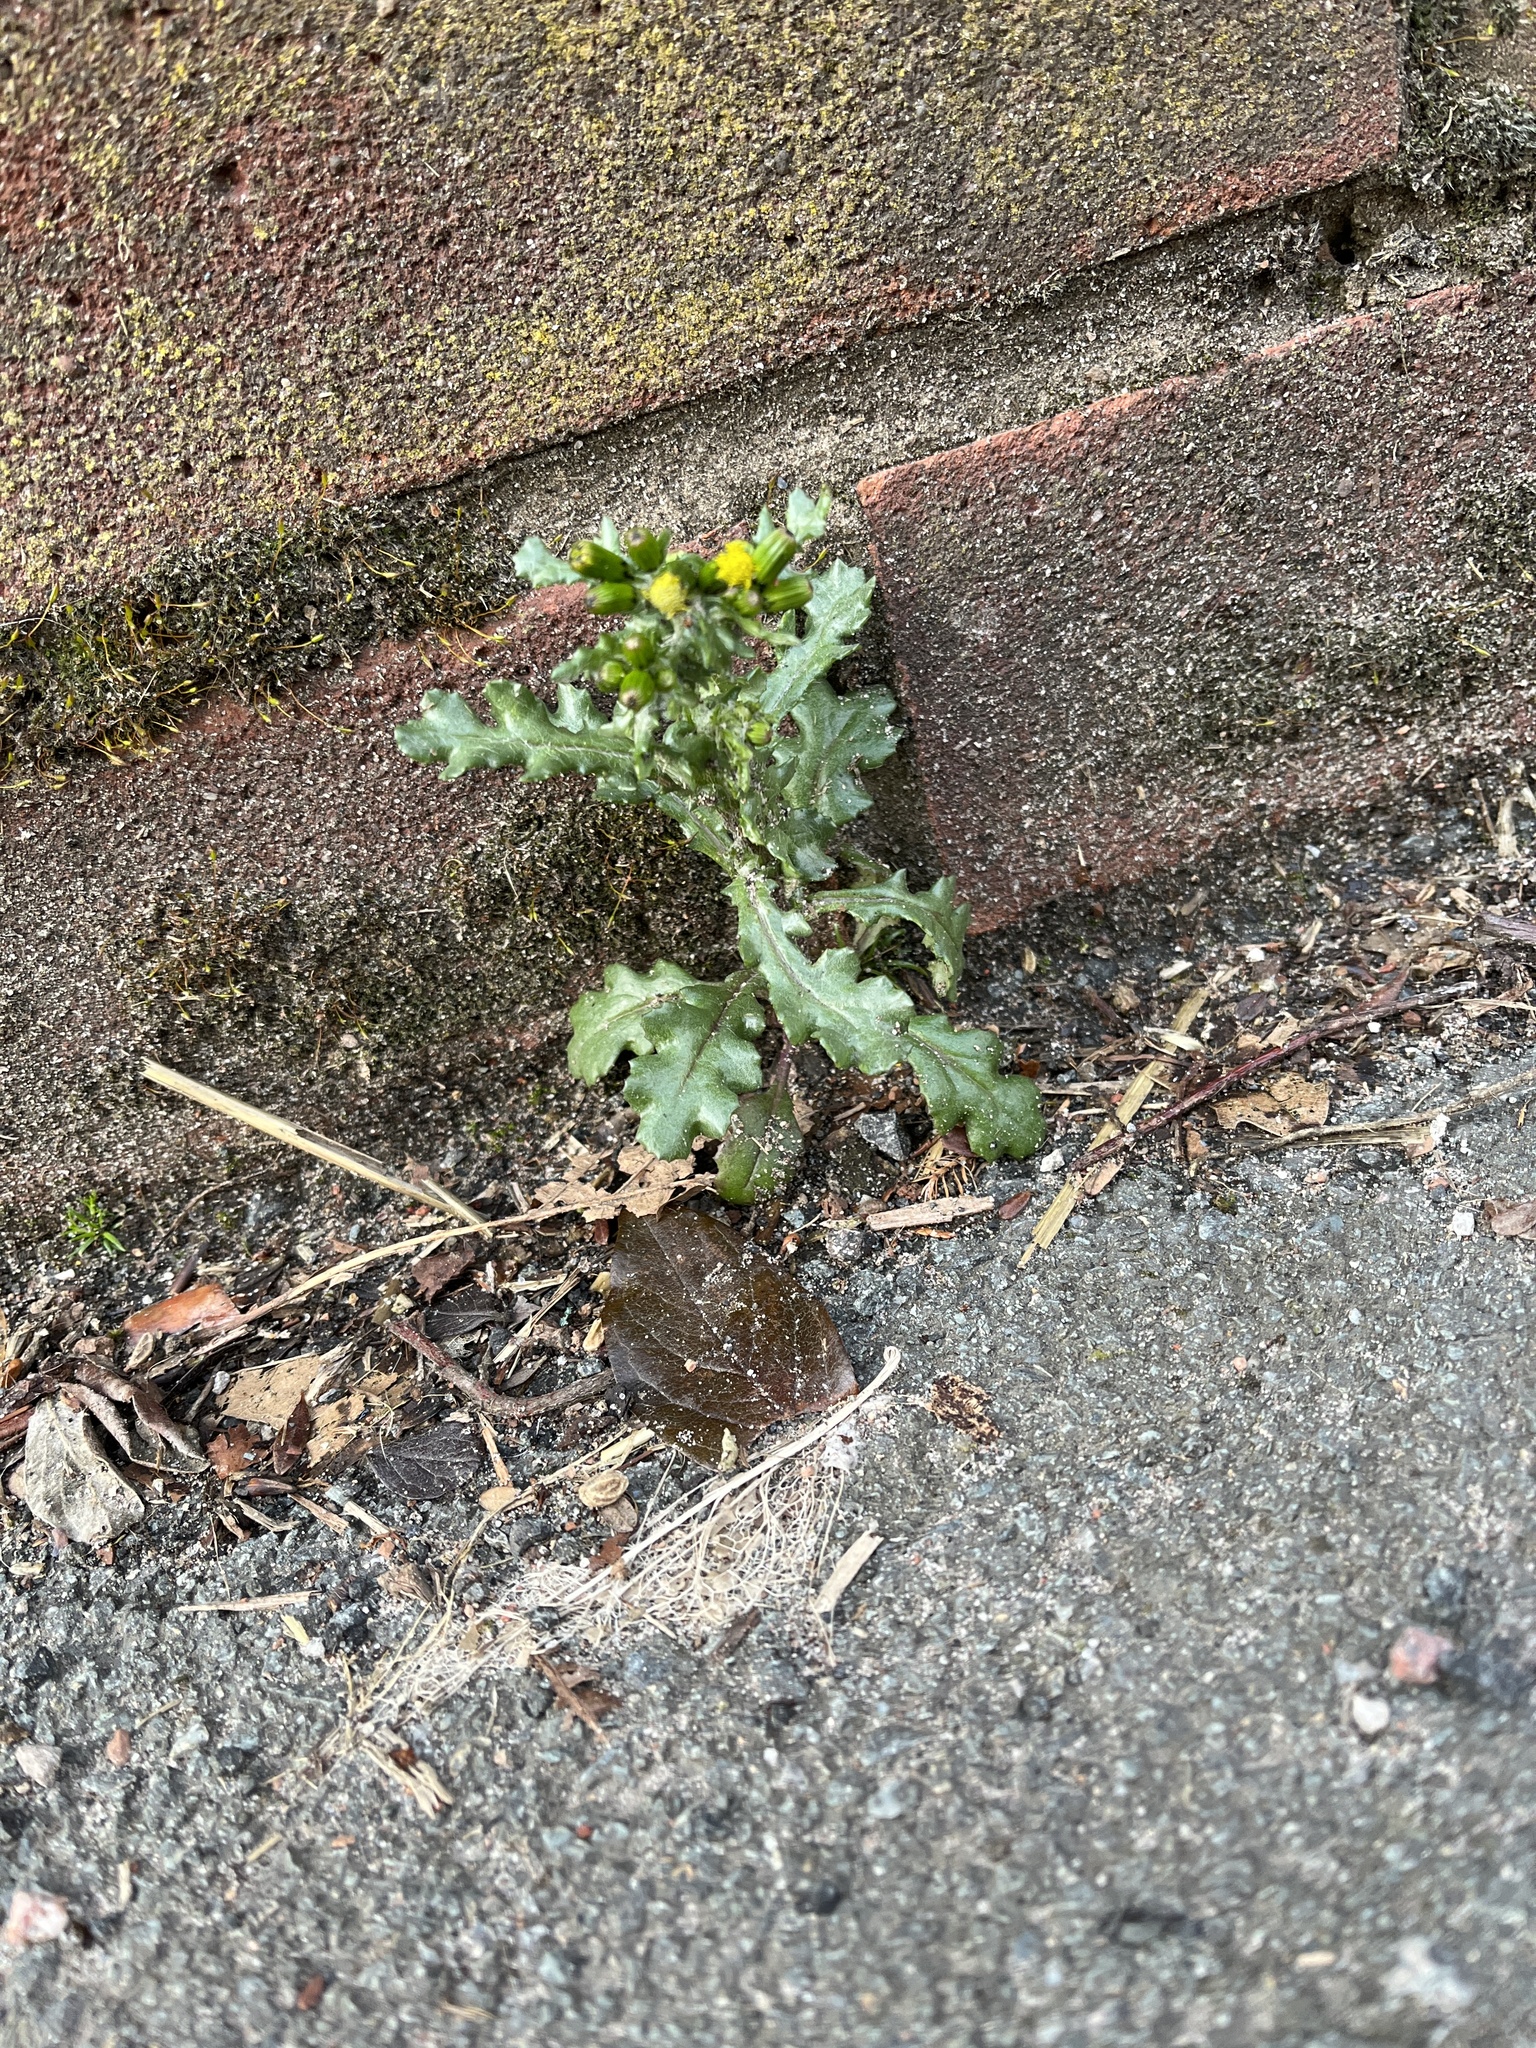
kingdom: Plantae
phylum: Tracheophyta
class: Magnoliopsida
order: Asterales
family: Asteraceae
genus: Senecio
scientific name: Senecio vulgaris
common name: Old-man-in-the-spring
